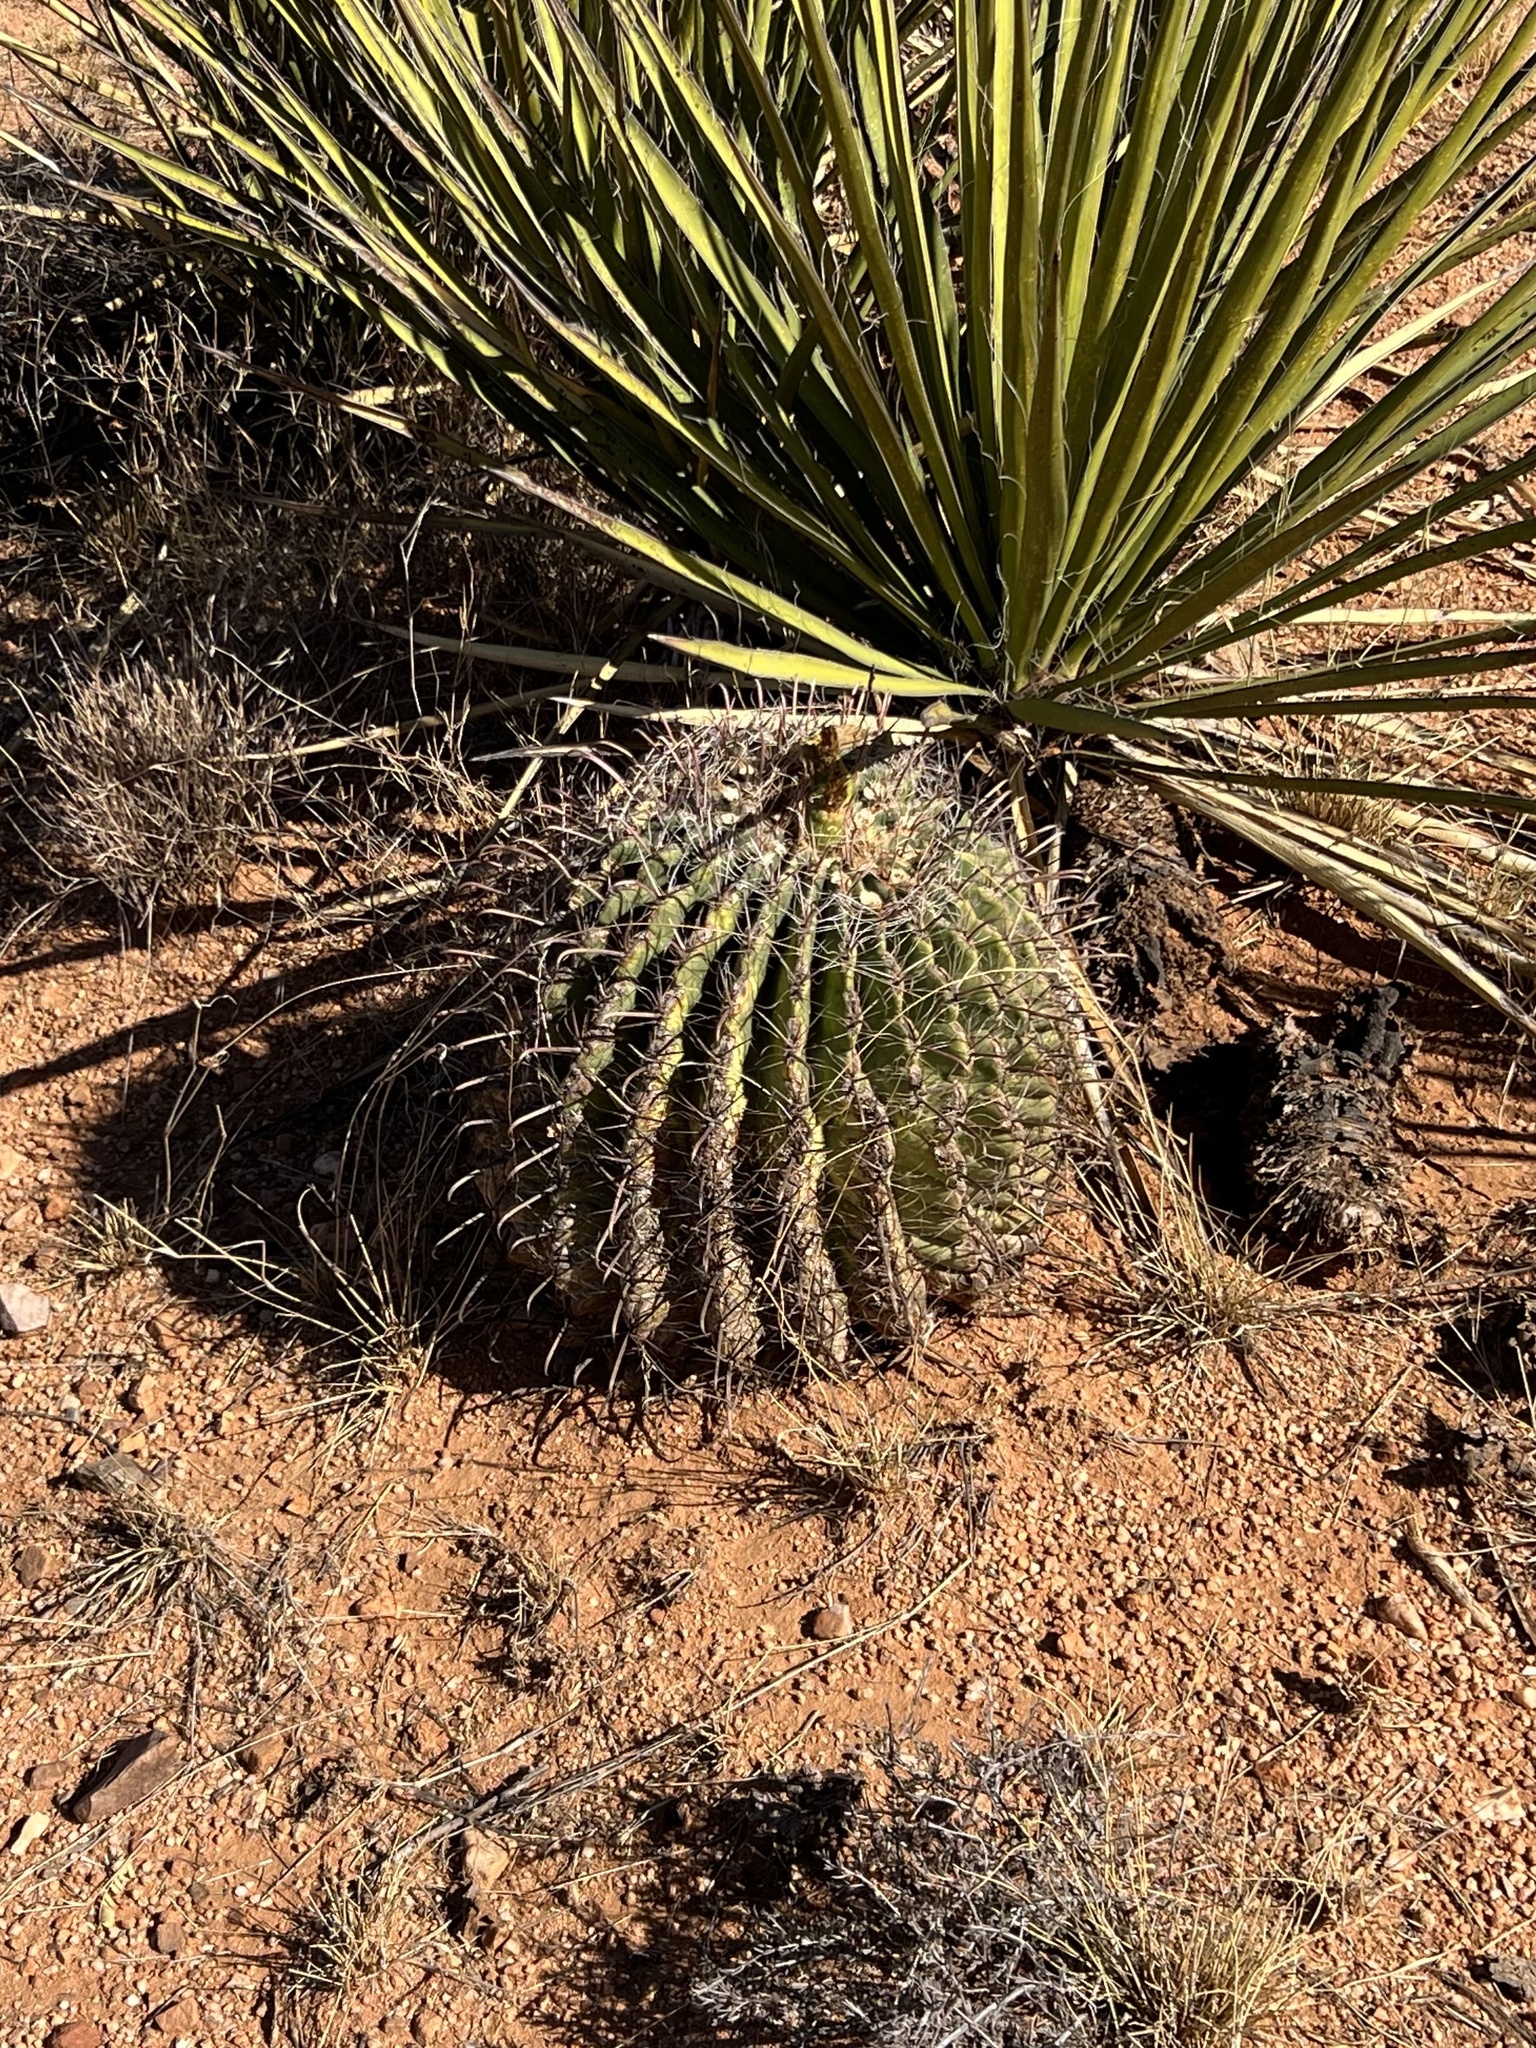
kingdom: Plantae
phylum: Tracheophyta
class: Magnoliopsida
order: Caryophyllales
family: Cactaceae
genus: Ferocactus
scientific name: Ferocactus wislizeni
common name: Candy barrel cactus
